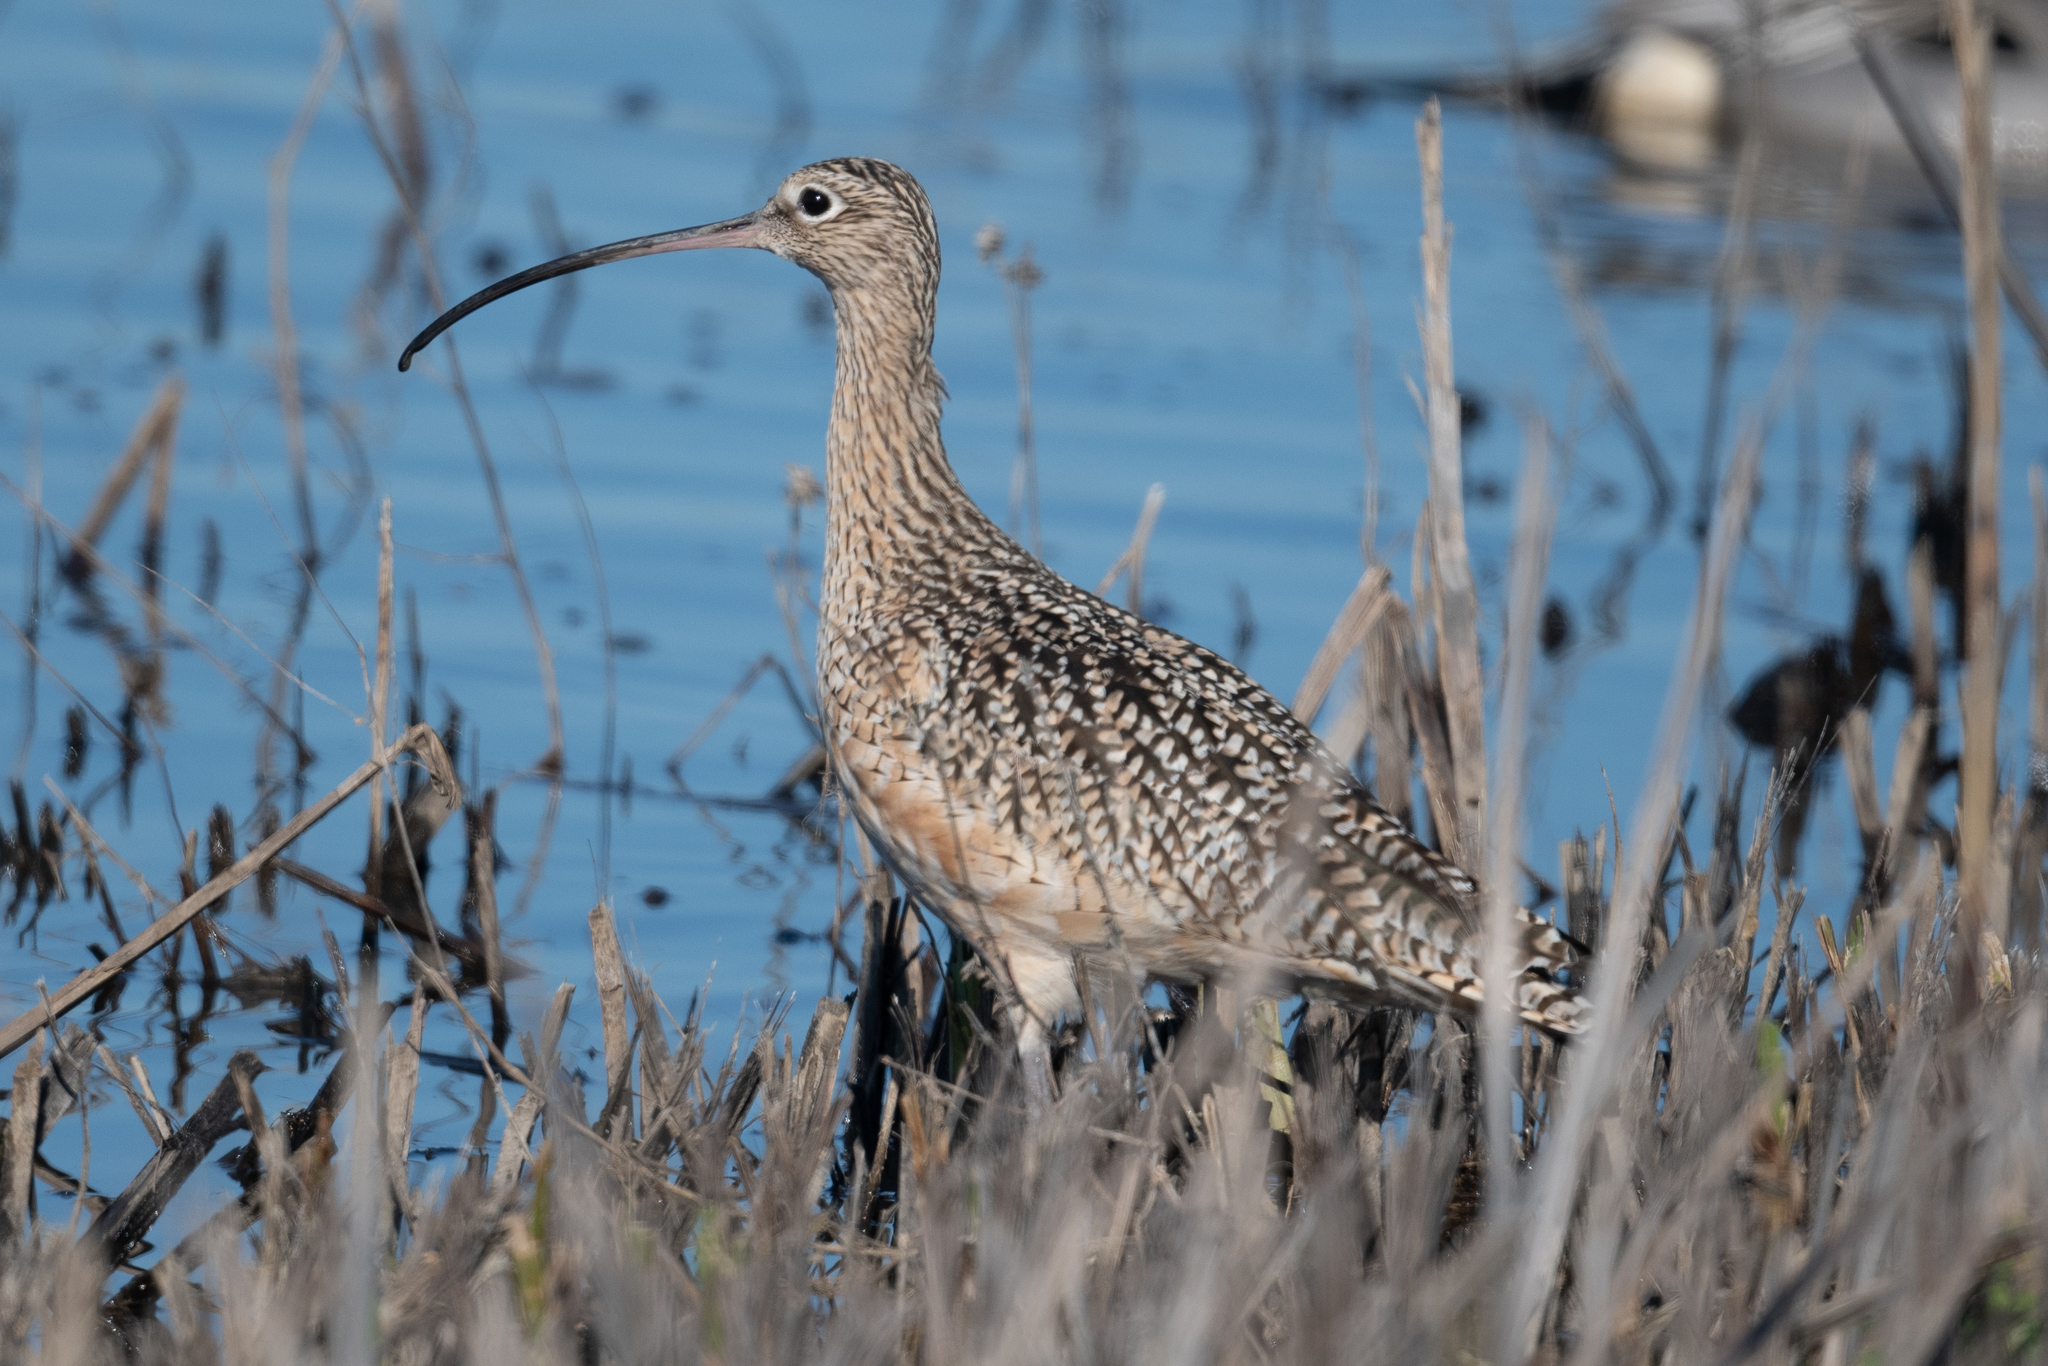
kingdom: Animalia
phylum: Chordata
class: Aves
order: Charadriiformes
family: Scolopacidae
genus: Numenius
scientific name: Numenius americanus
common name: Long-billed curlew
